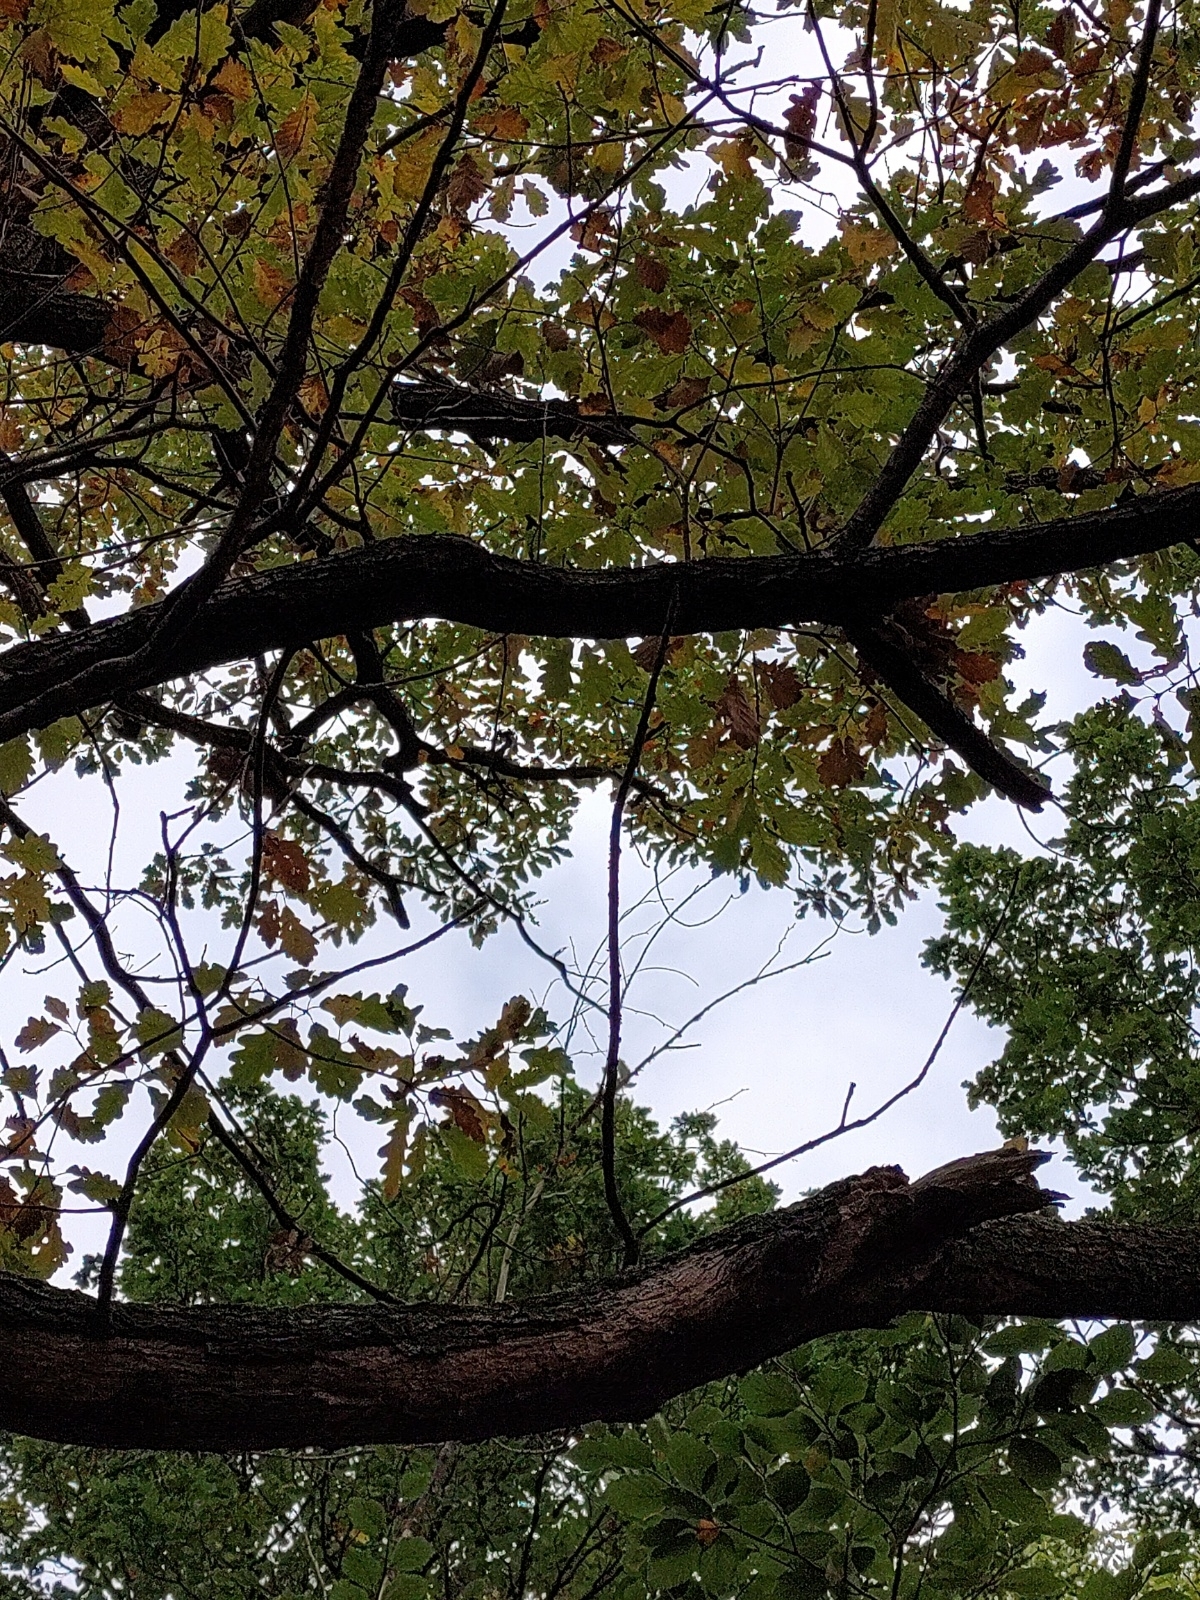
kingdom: Plantae
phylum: Tracheophyta
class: Magnoliopsida
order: Fagales
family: Fagaceae
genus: Quercus
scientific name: Quercus petraea
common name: Sessile oak
